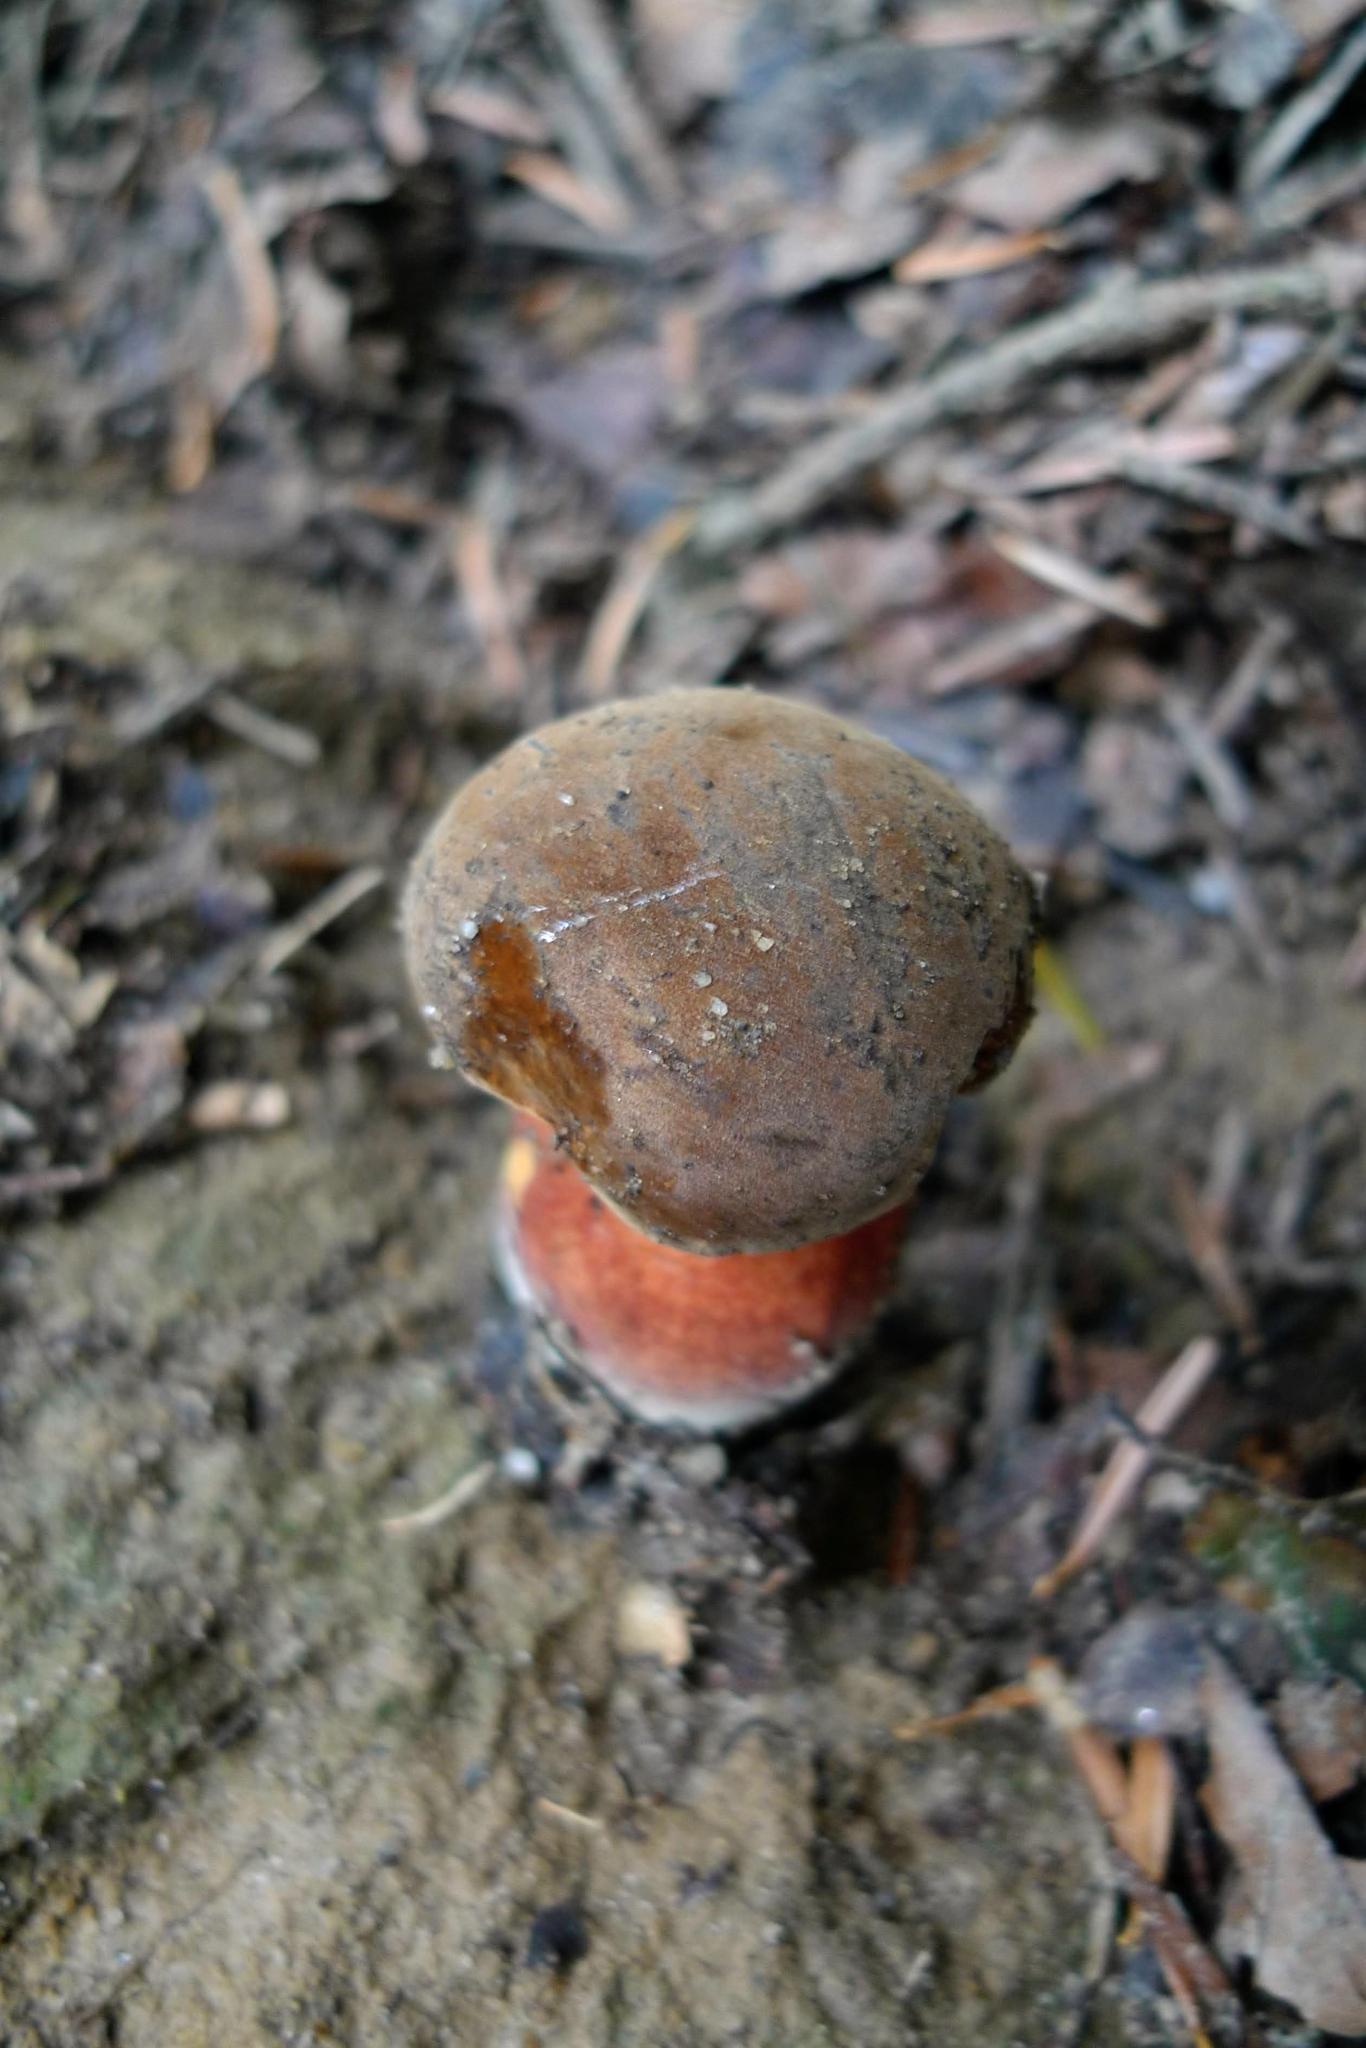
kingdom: Fungi
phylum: Basidiomycota
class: Agaricomycetes
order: Boletales
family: Boletaceae
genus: Neoboletus
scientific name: Neoboletus erythropus
